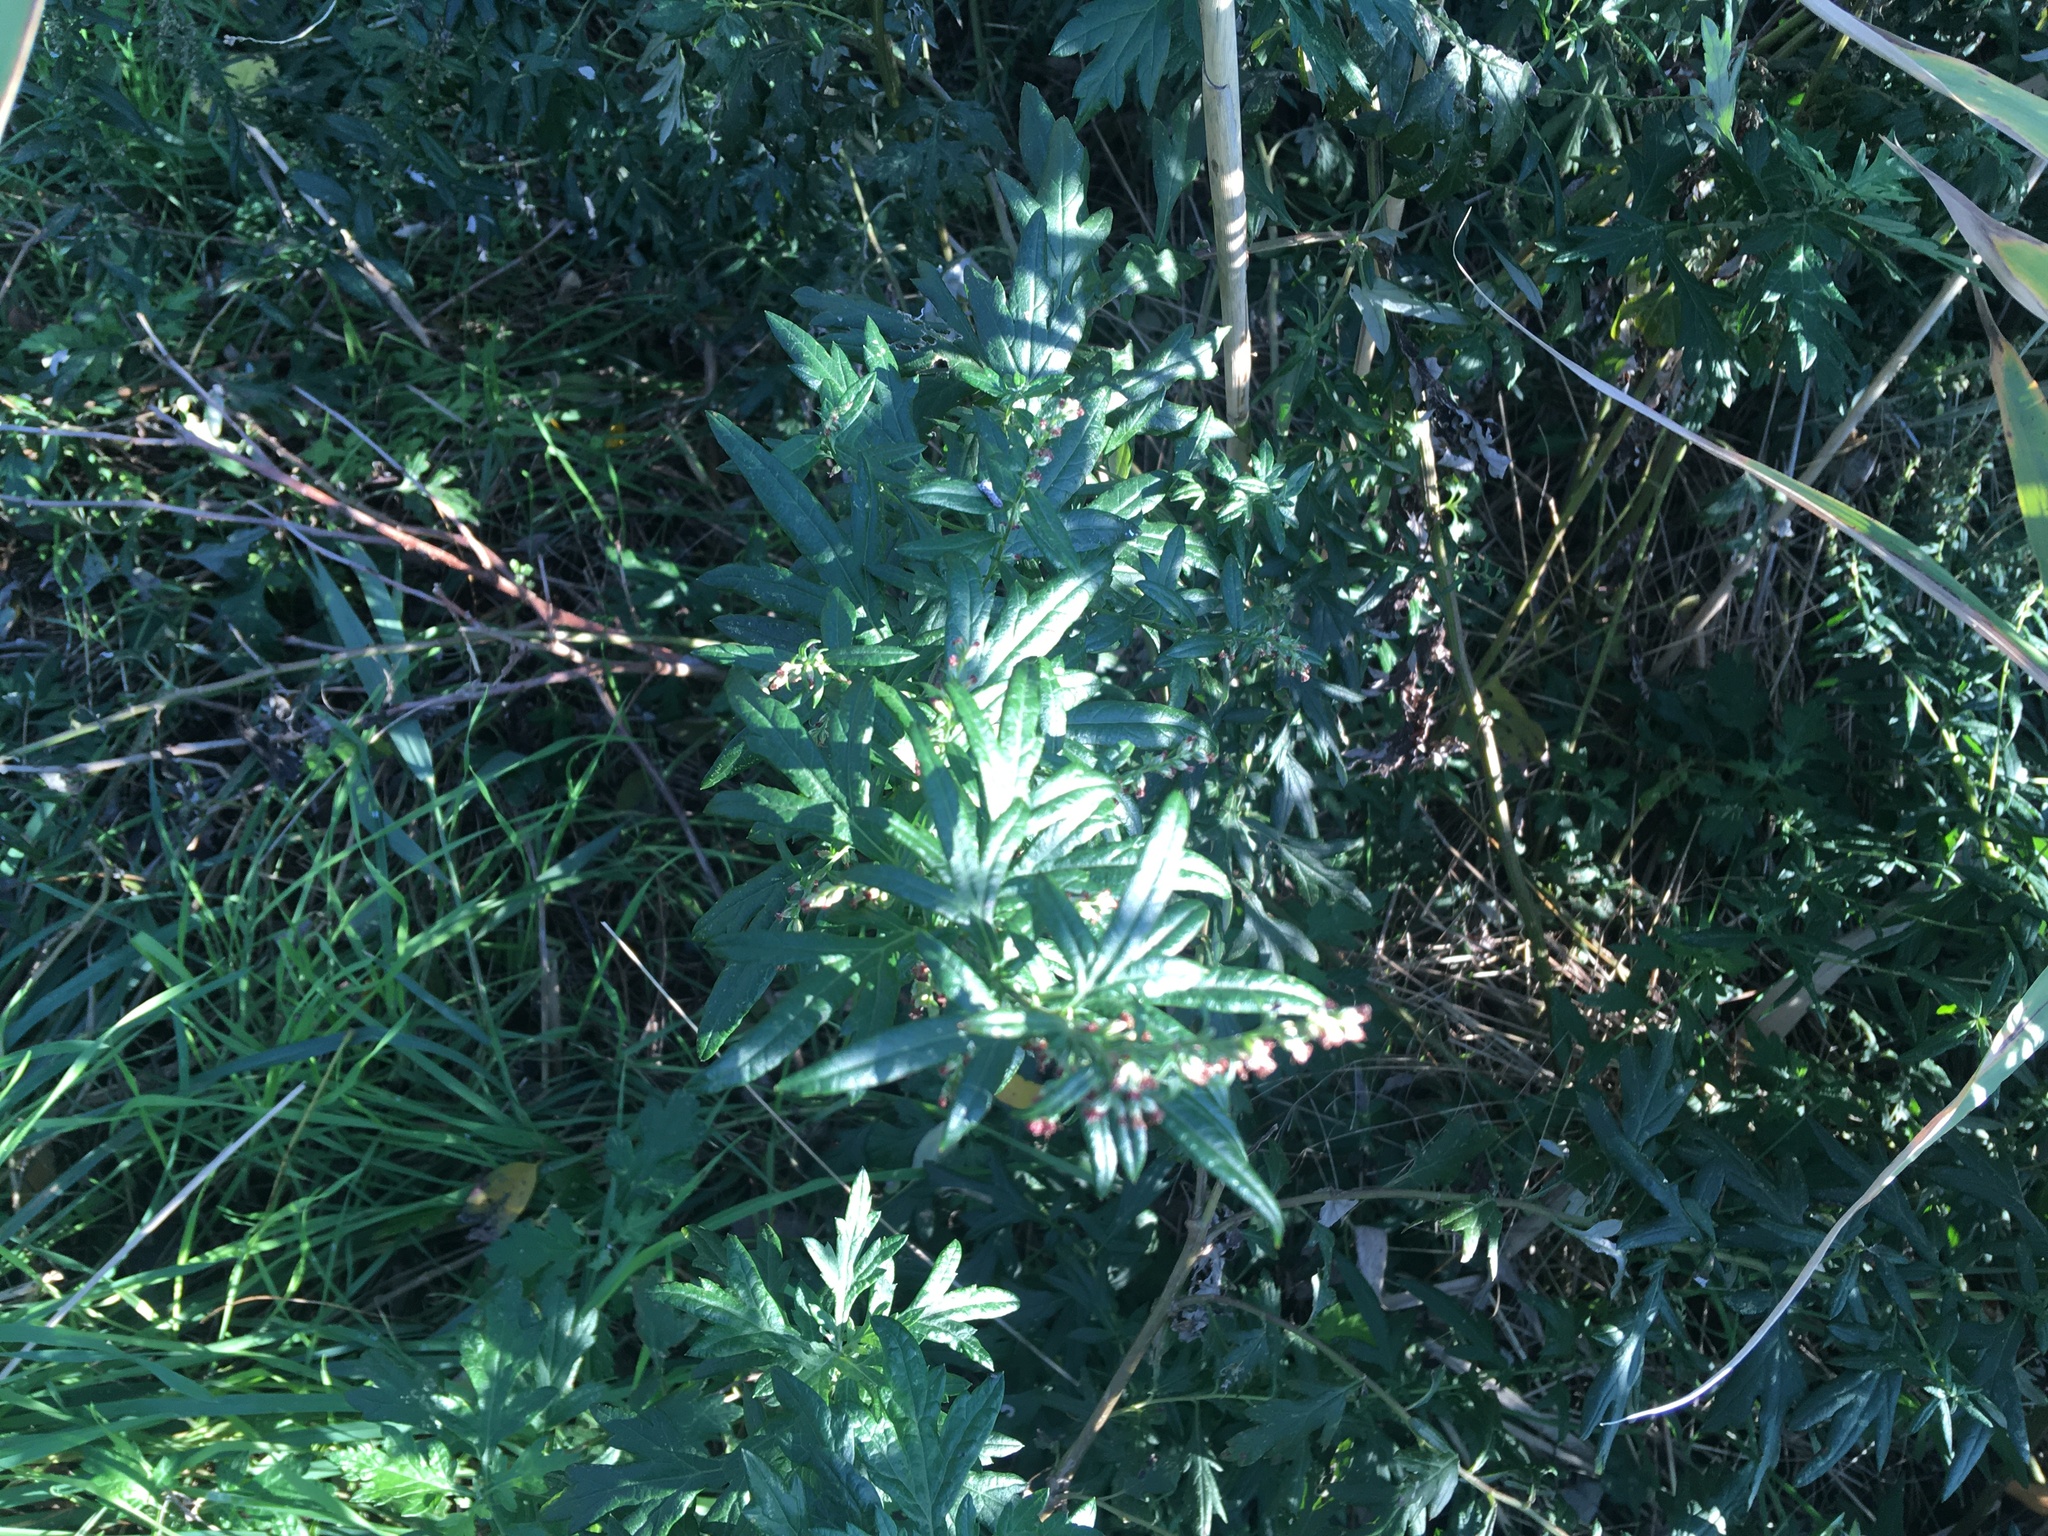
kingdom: Plantae
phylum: Tracheophyta
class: Magnoliopsida
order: Asterales
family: Asteraceae
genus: Artemisia
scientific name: Artemisia vulgaris
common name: Mugwort
